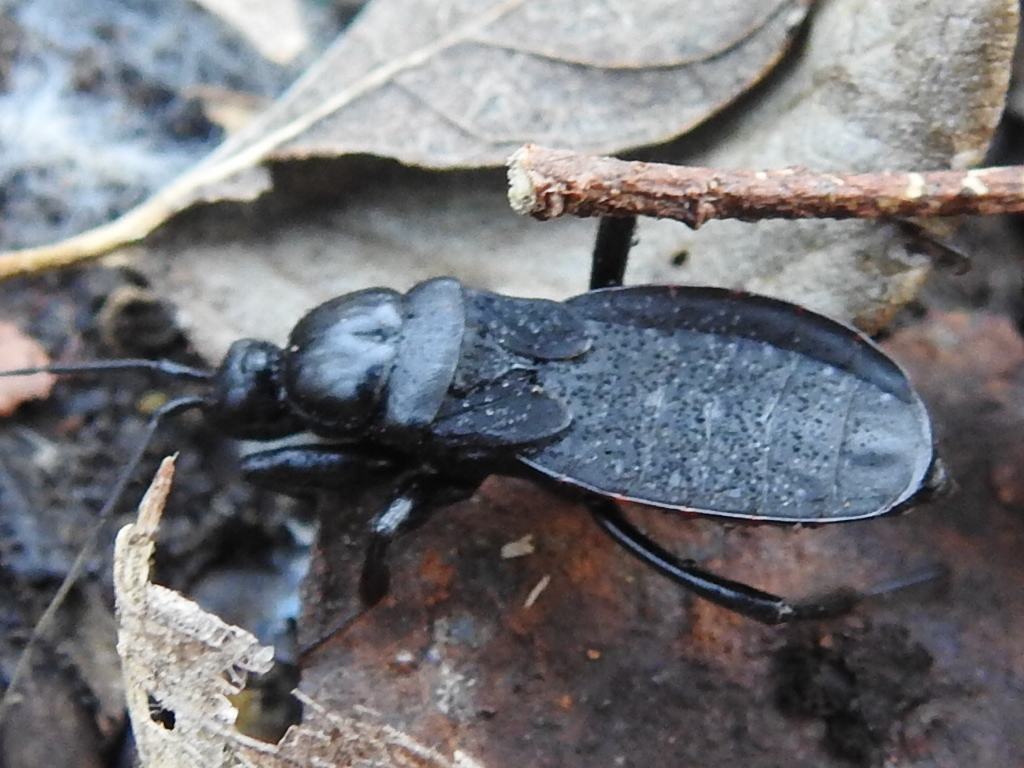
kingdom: Animalia
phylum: Arthropoda
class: Insecta
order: Hemiptera
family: Reduviidae
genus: Melanolestes
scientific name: Melanolestes picipes
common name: Assassin bug
